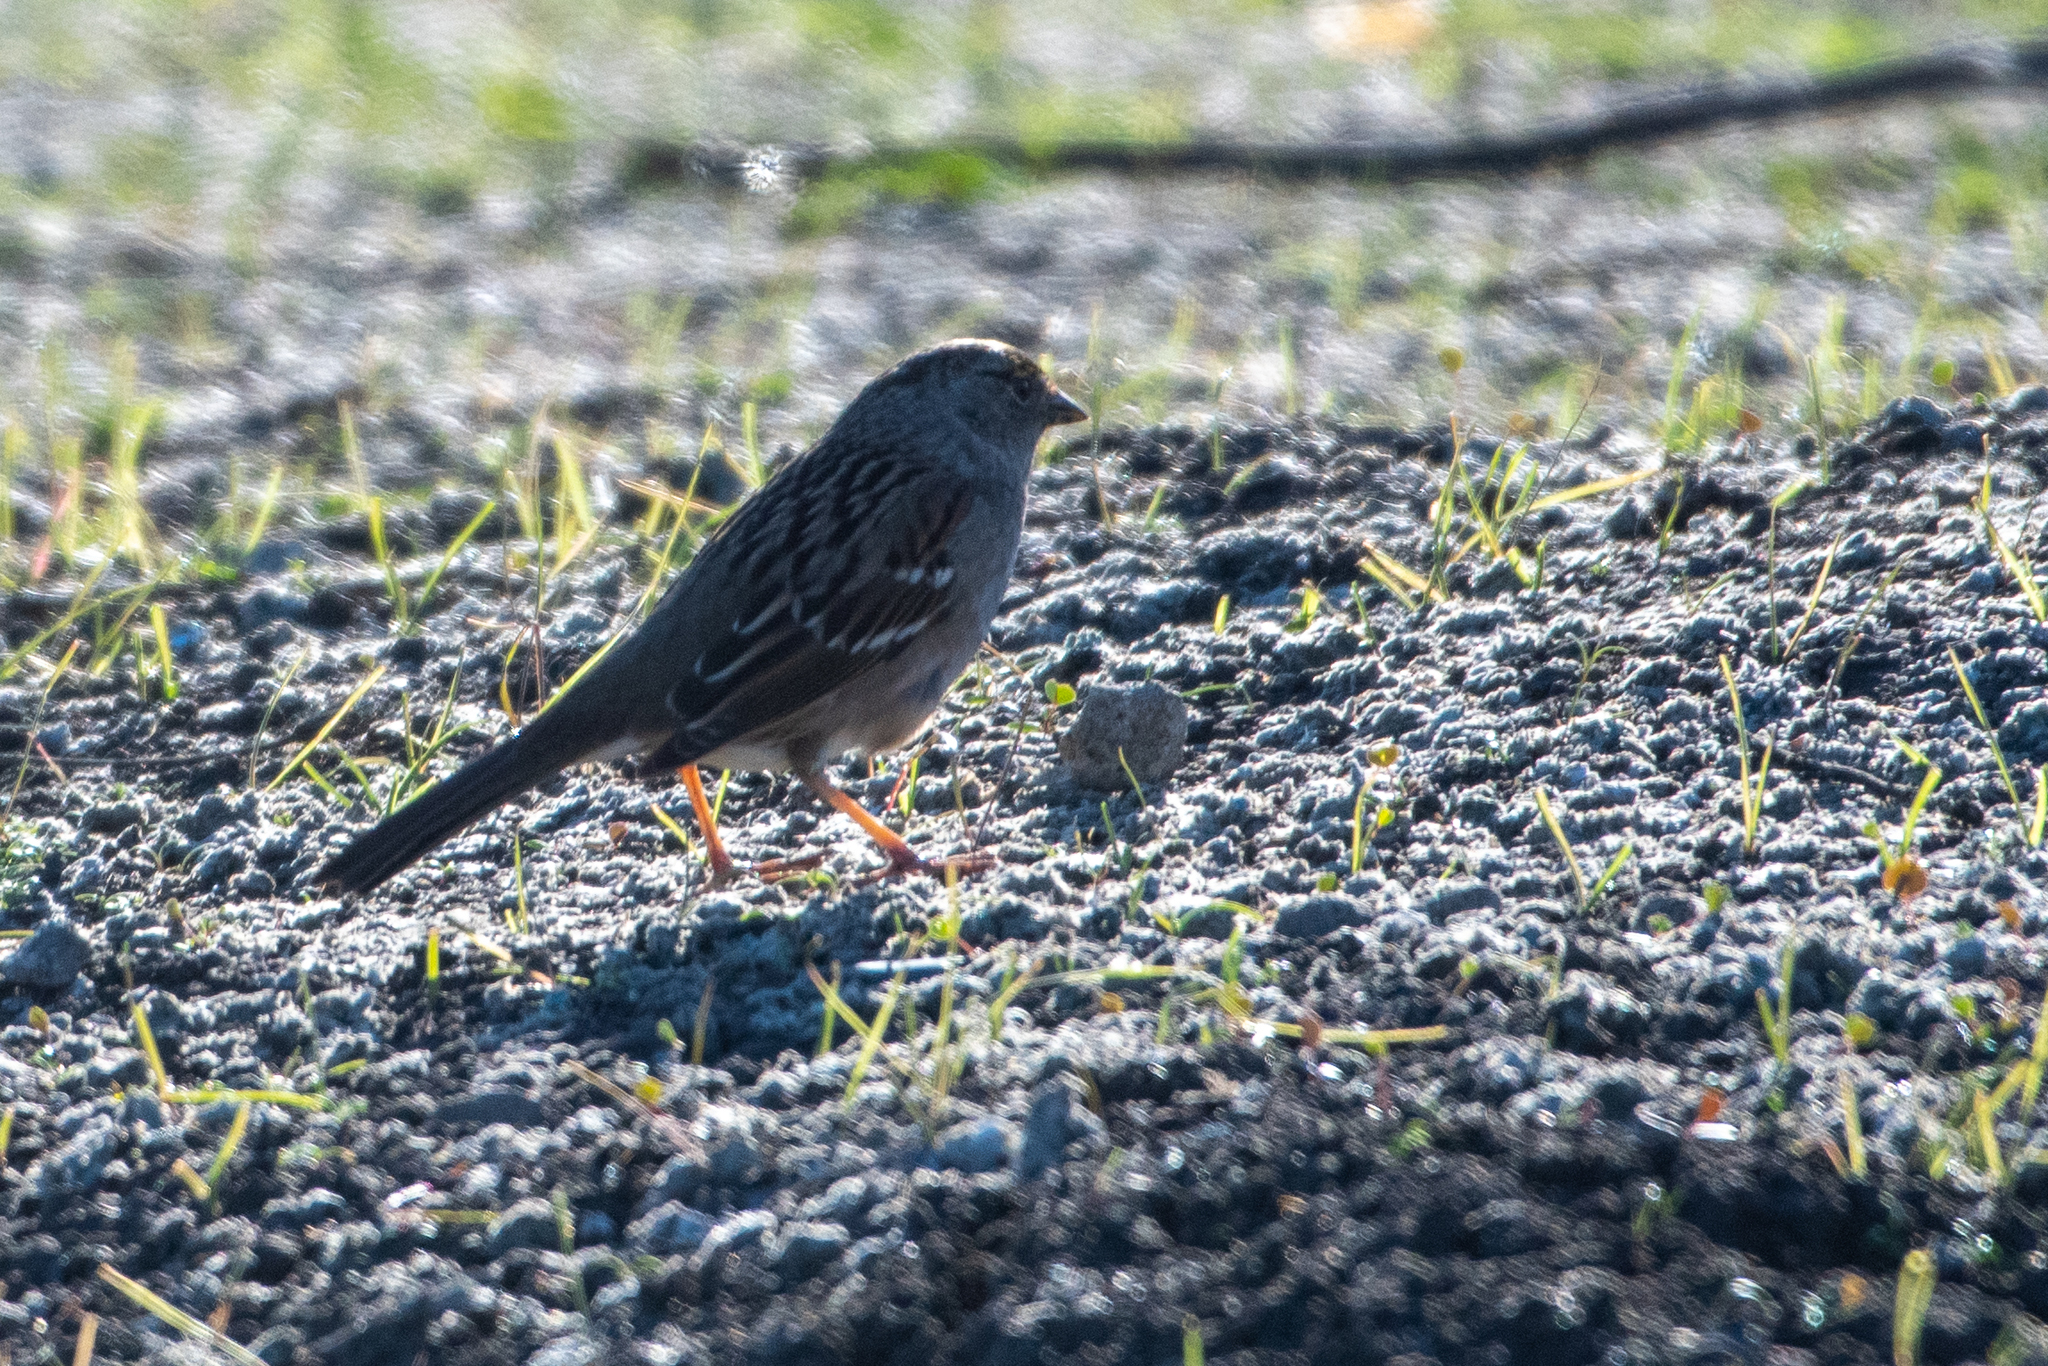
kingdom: Animalia
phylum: Chordata
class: Aves
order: Passeriformes
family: Passerellidae
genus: Zonotrichia
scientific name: Zonotrichia atricapilla
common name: Golden-crowned sparrow
